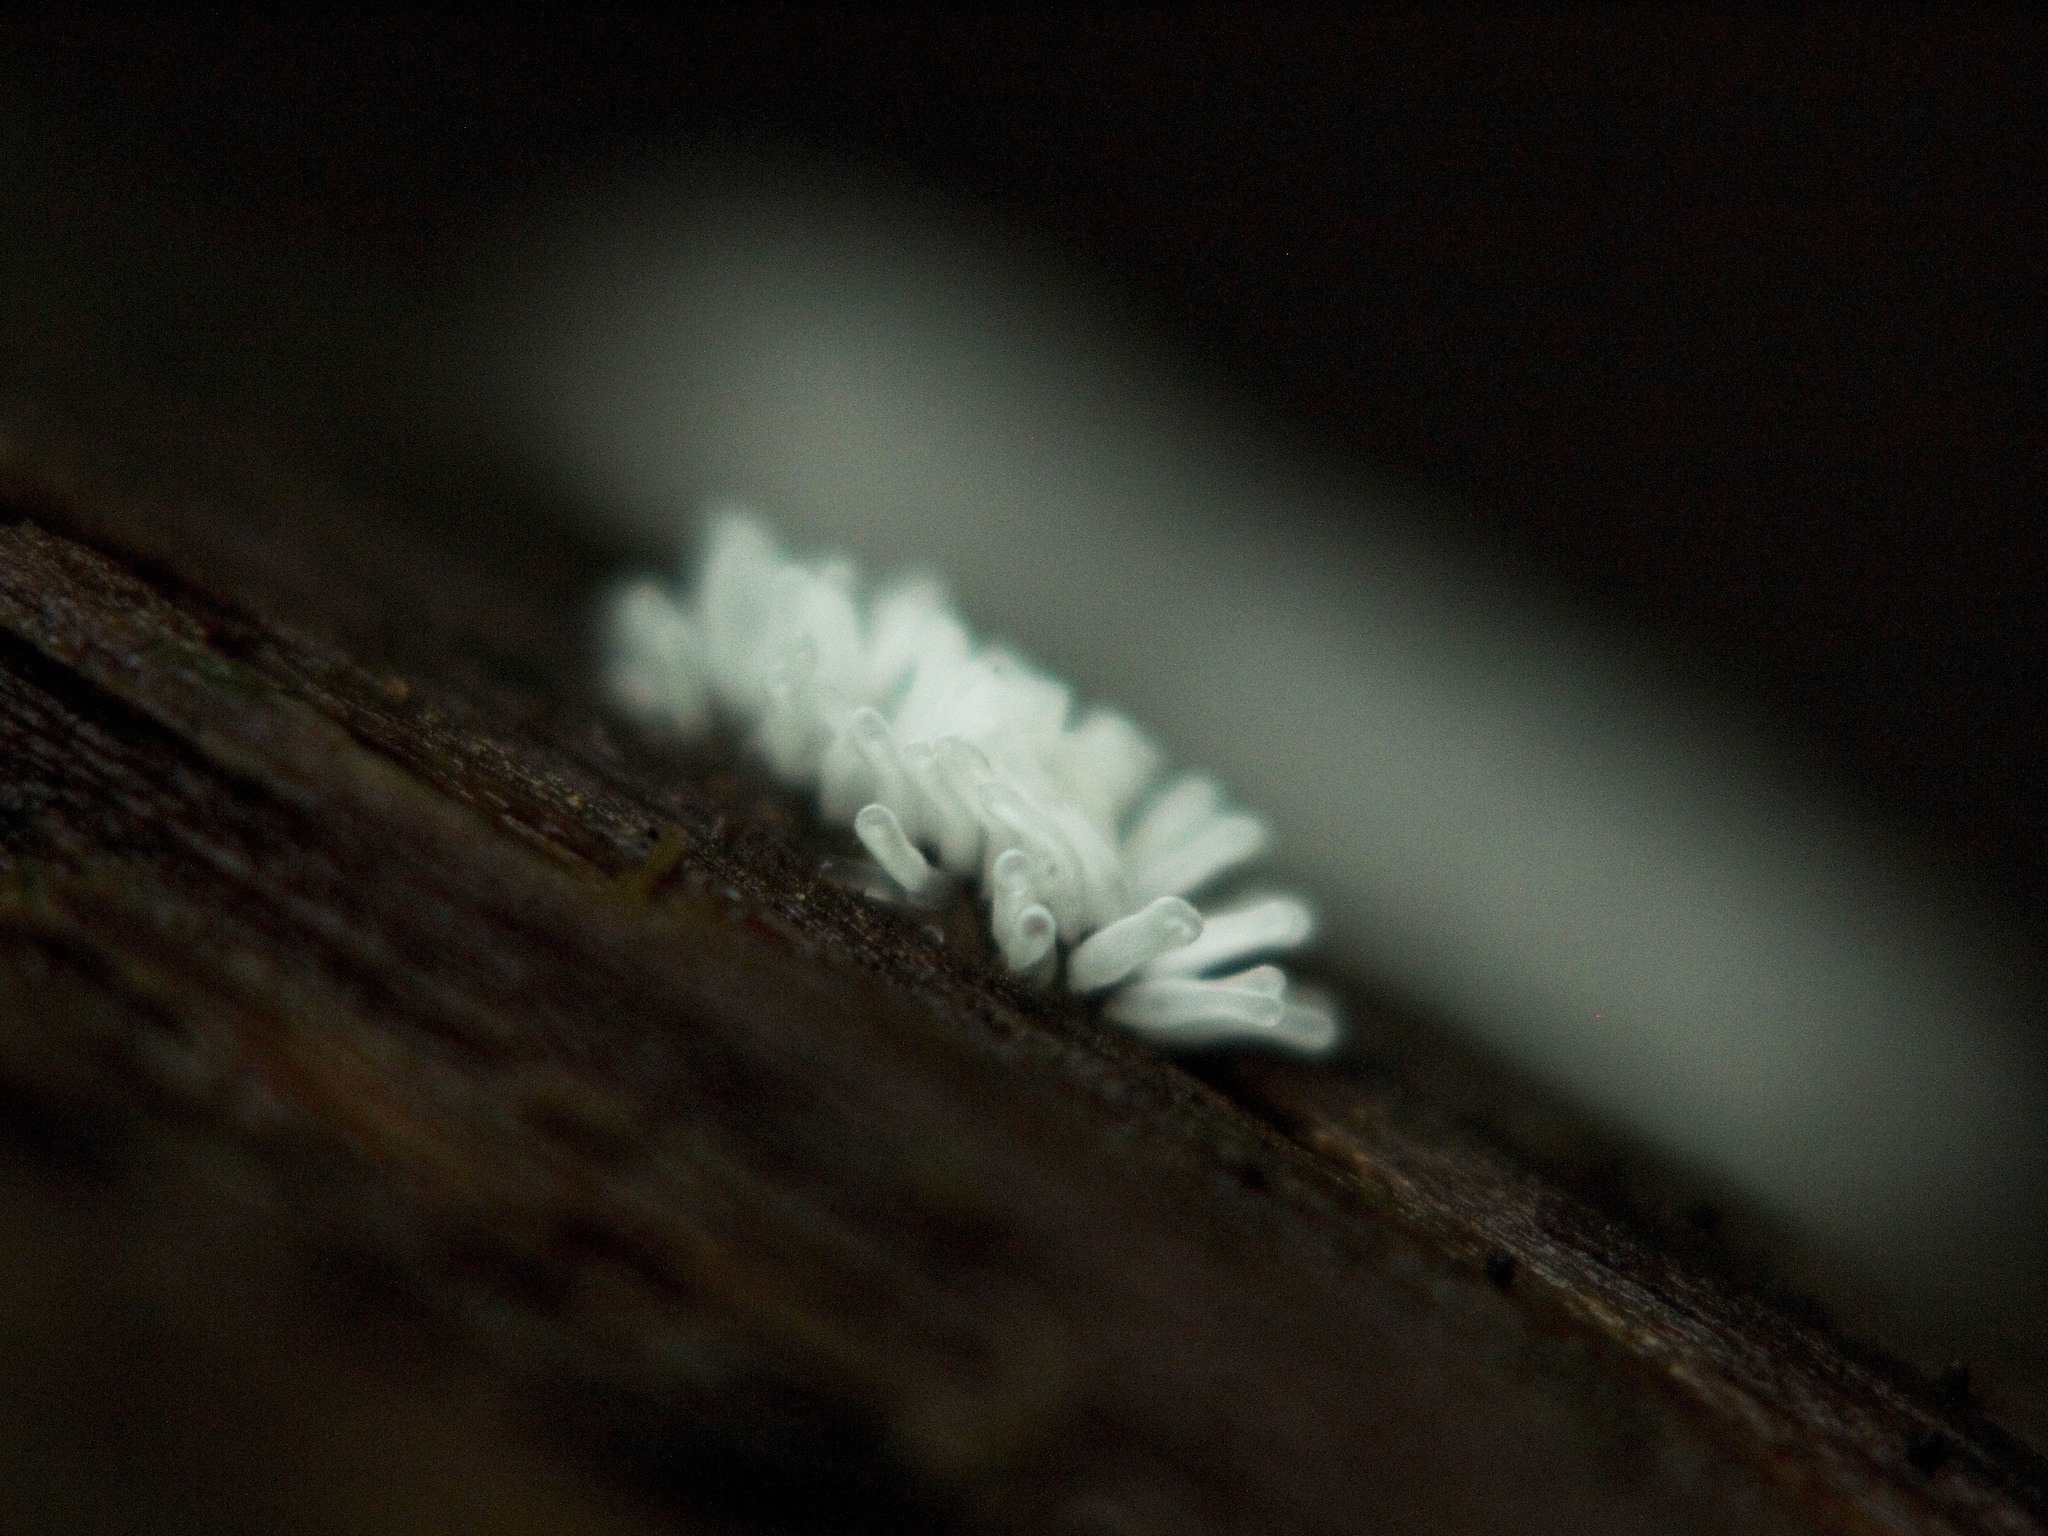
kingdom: Protozoa
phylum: Mycetozoa
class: Protosteliomycetes
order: Ceratiomyxales
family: Ceratiomyxaceae
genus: Ceratiomyxa
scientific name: Ceratiomyxa fruticulosa
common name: Honeycomb coral slime mold
